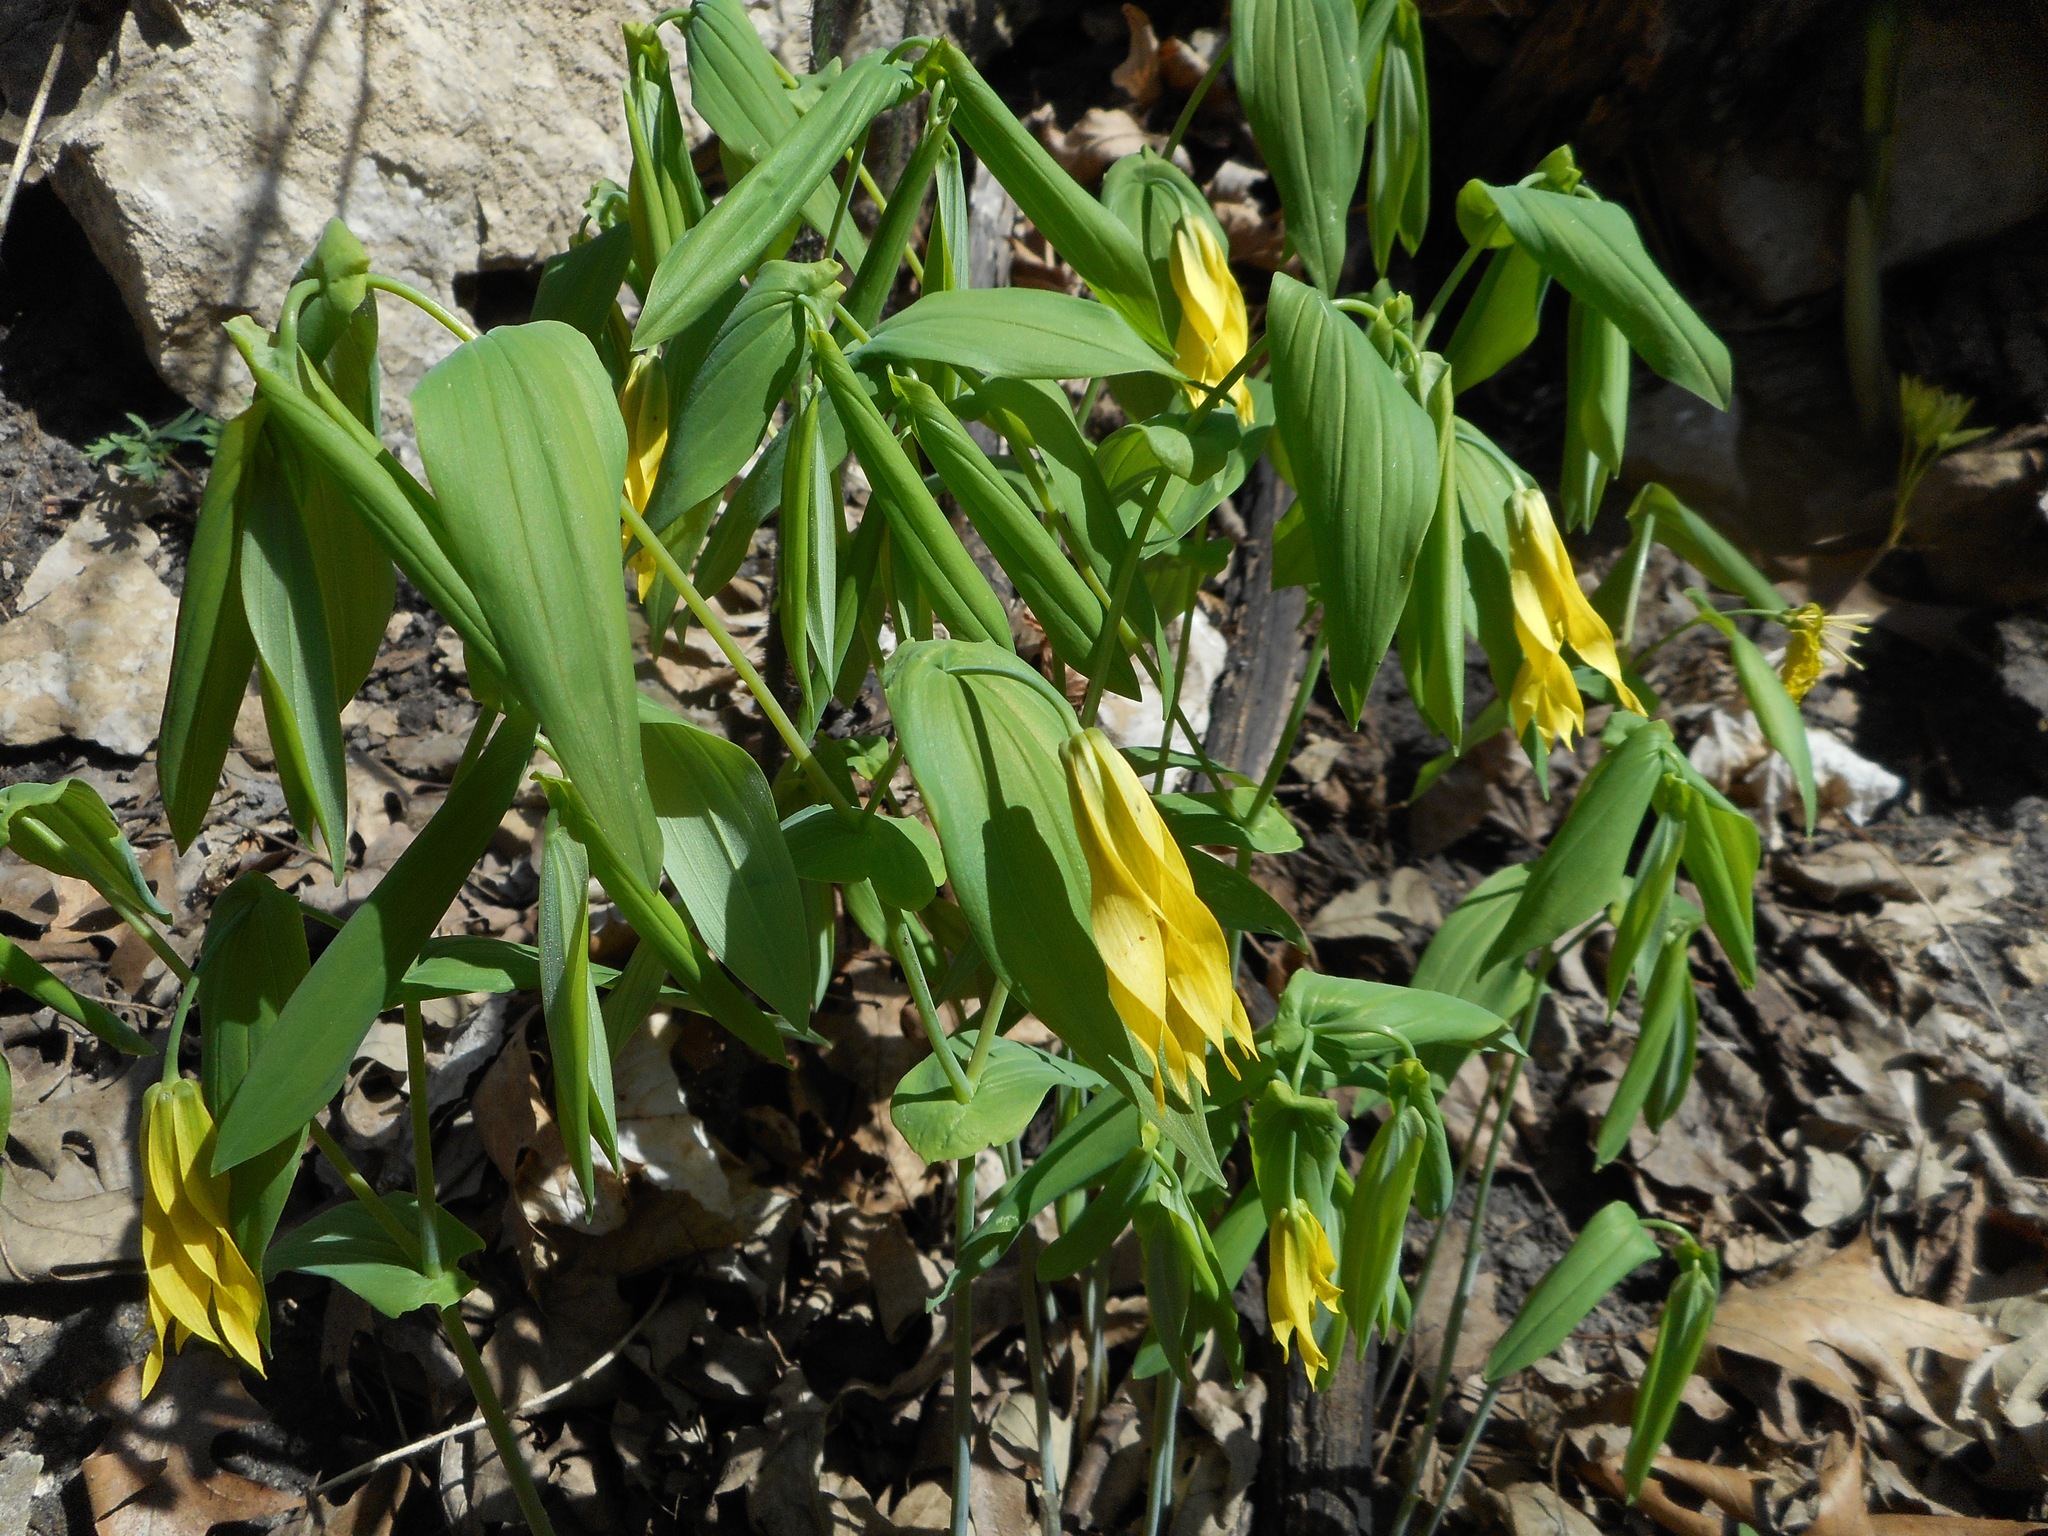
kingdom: Plantae
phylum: Tracheophyta
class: Liliopsida
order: Liliales
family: Colchicaceae
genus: Uvularia
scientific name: Uvularia grandiflora
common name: Bellwort
